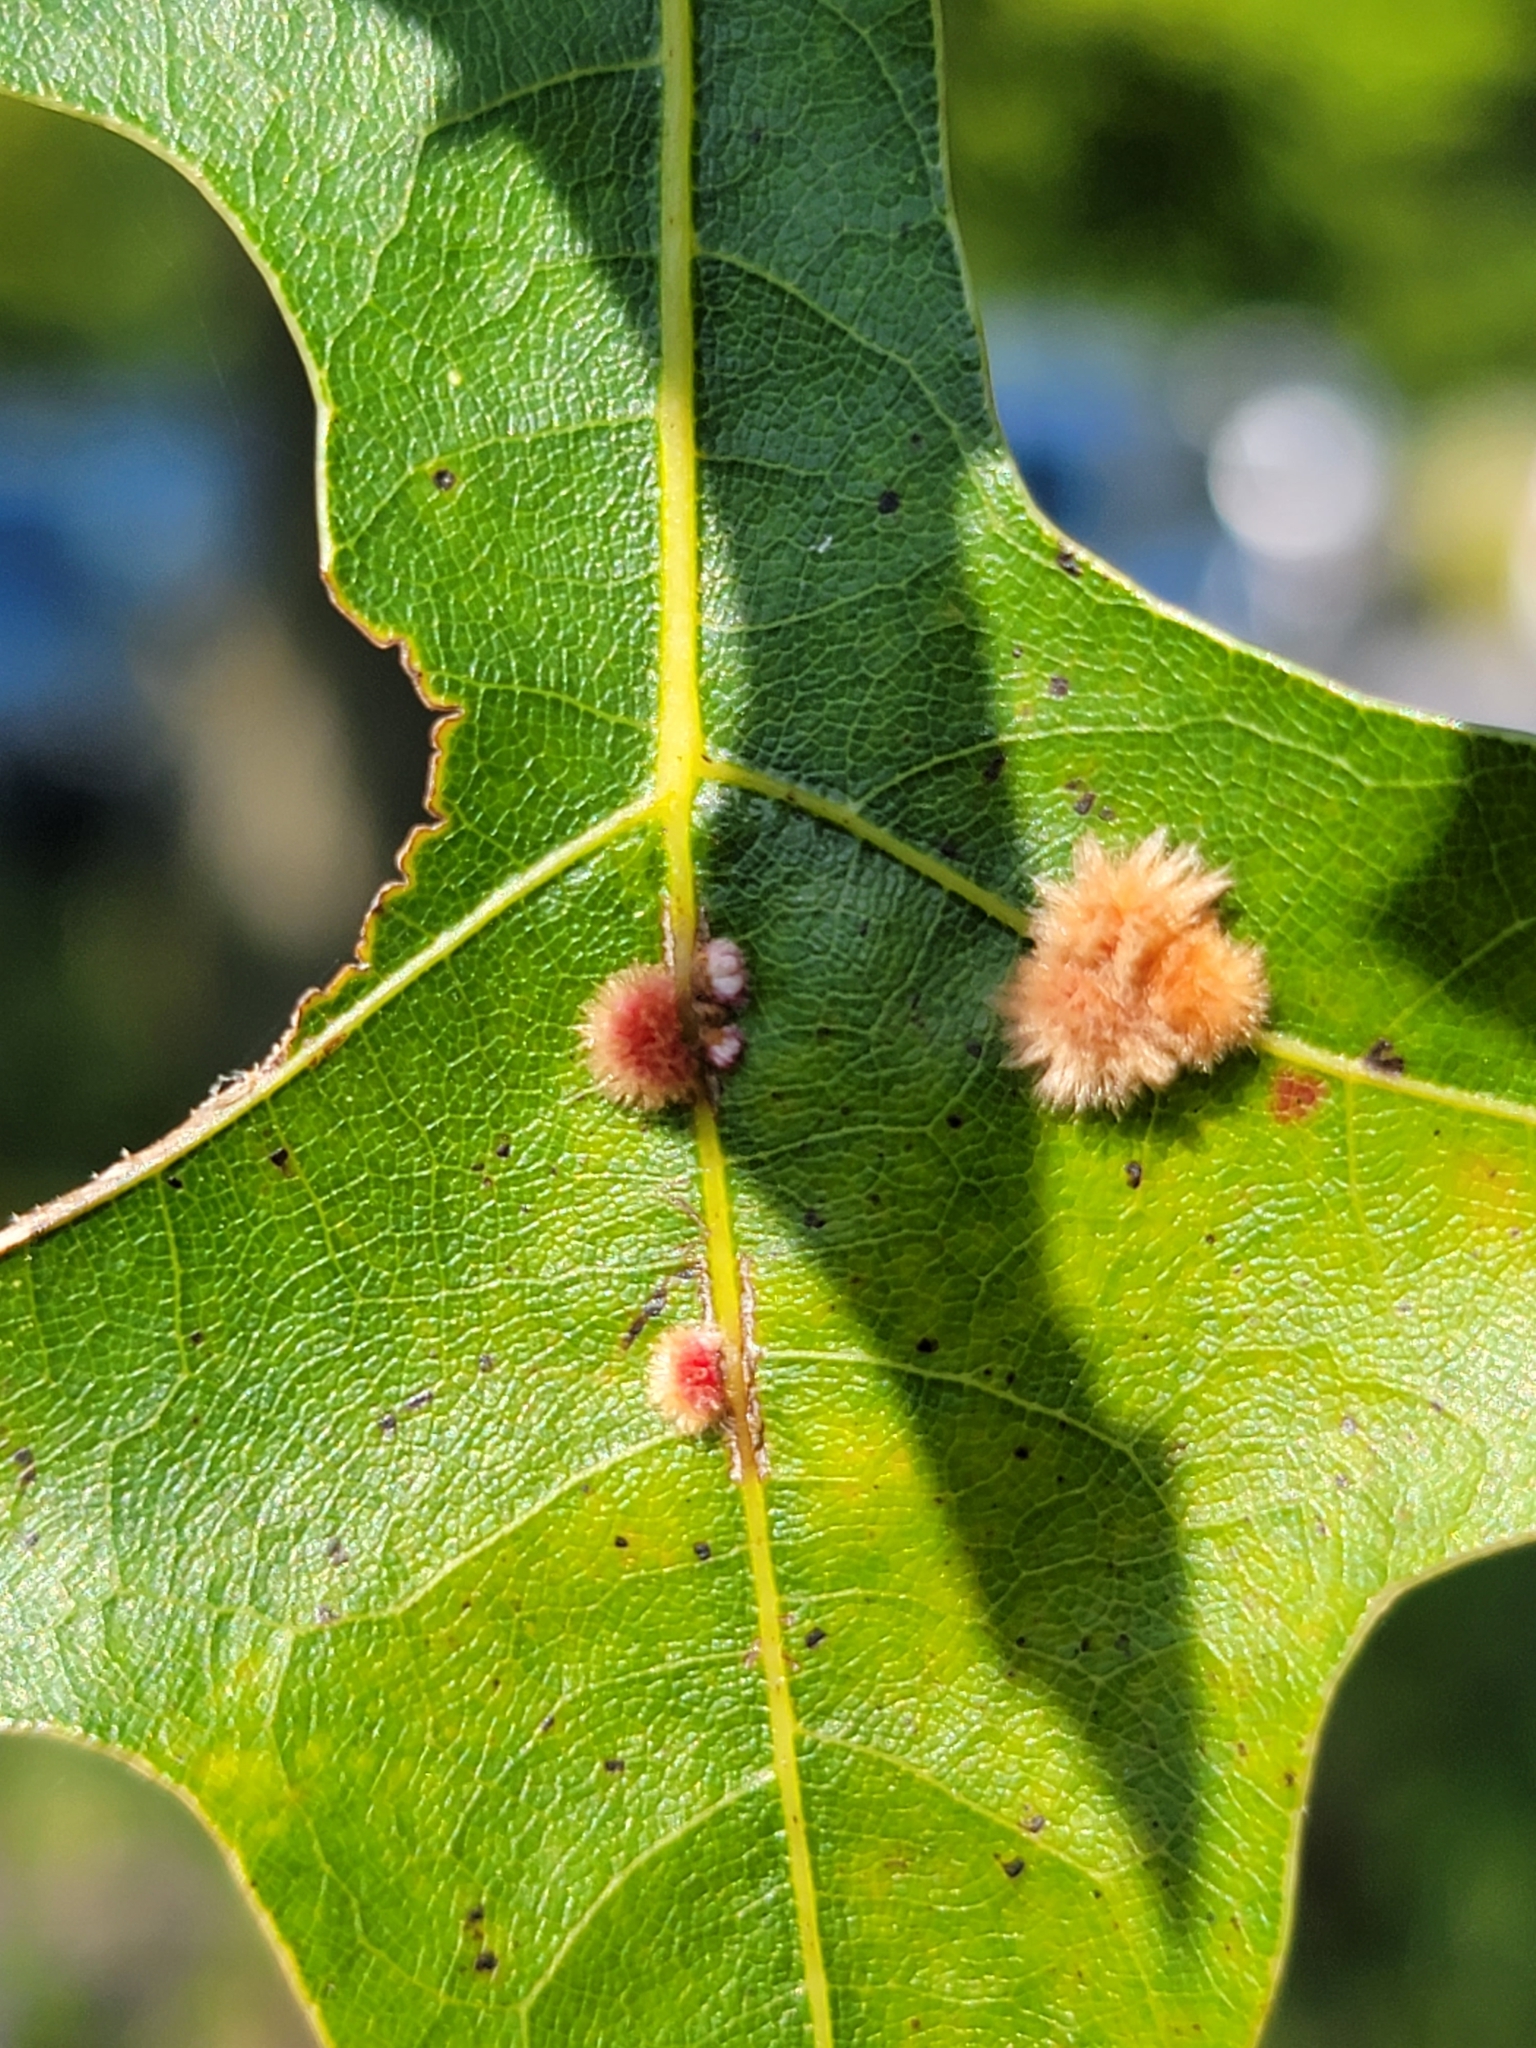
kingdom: Animalia
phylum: Arthropoda
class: Insecta
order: Hymenoptera
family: Cynipidae
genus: Callirhytis
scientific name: Callirhytis
